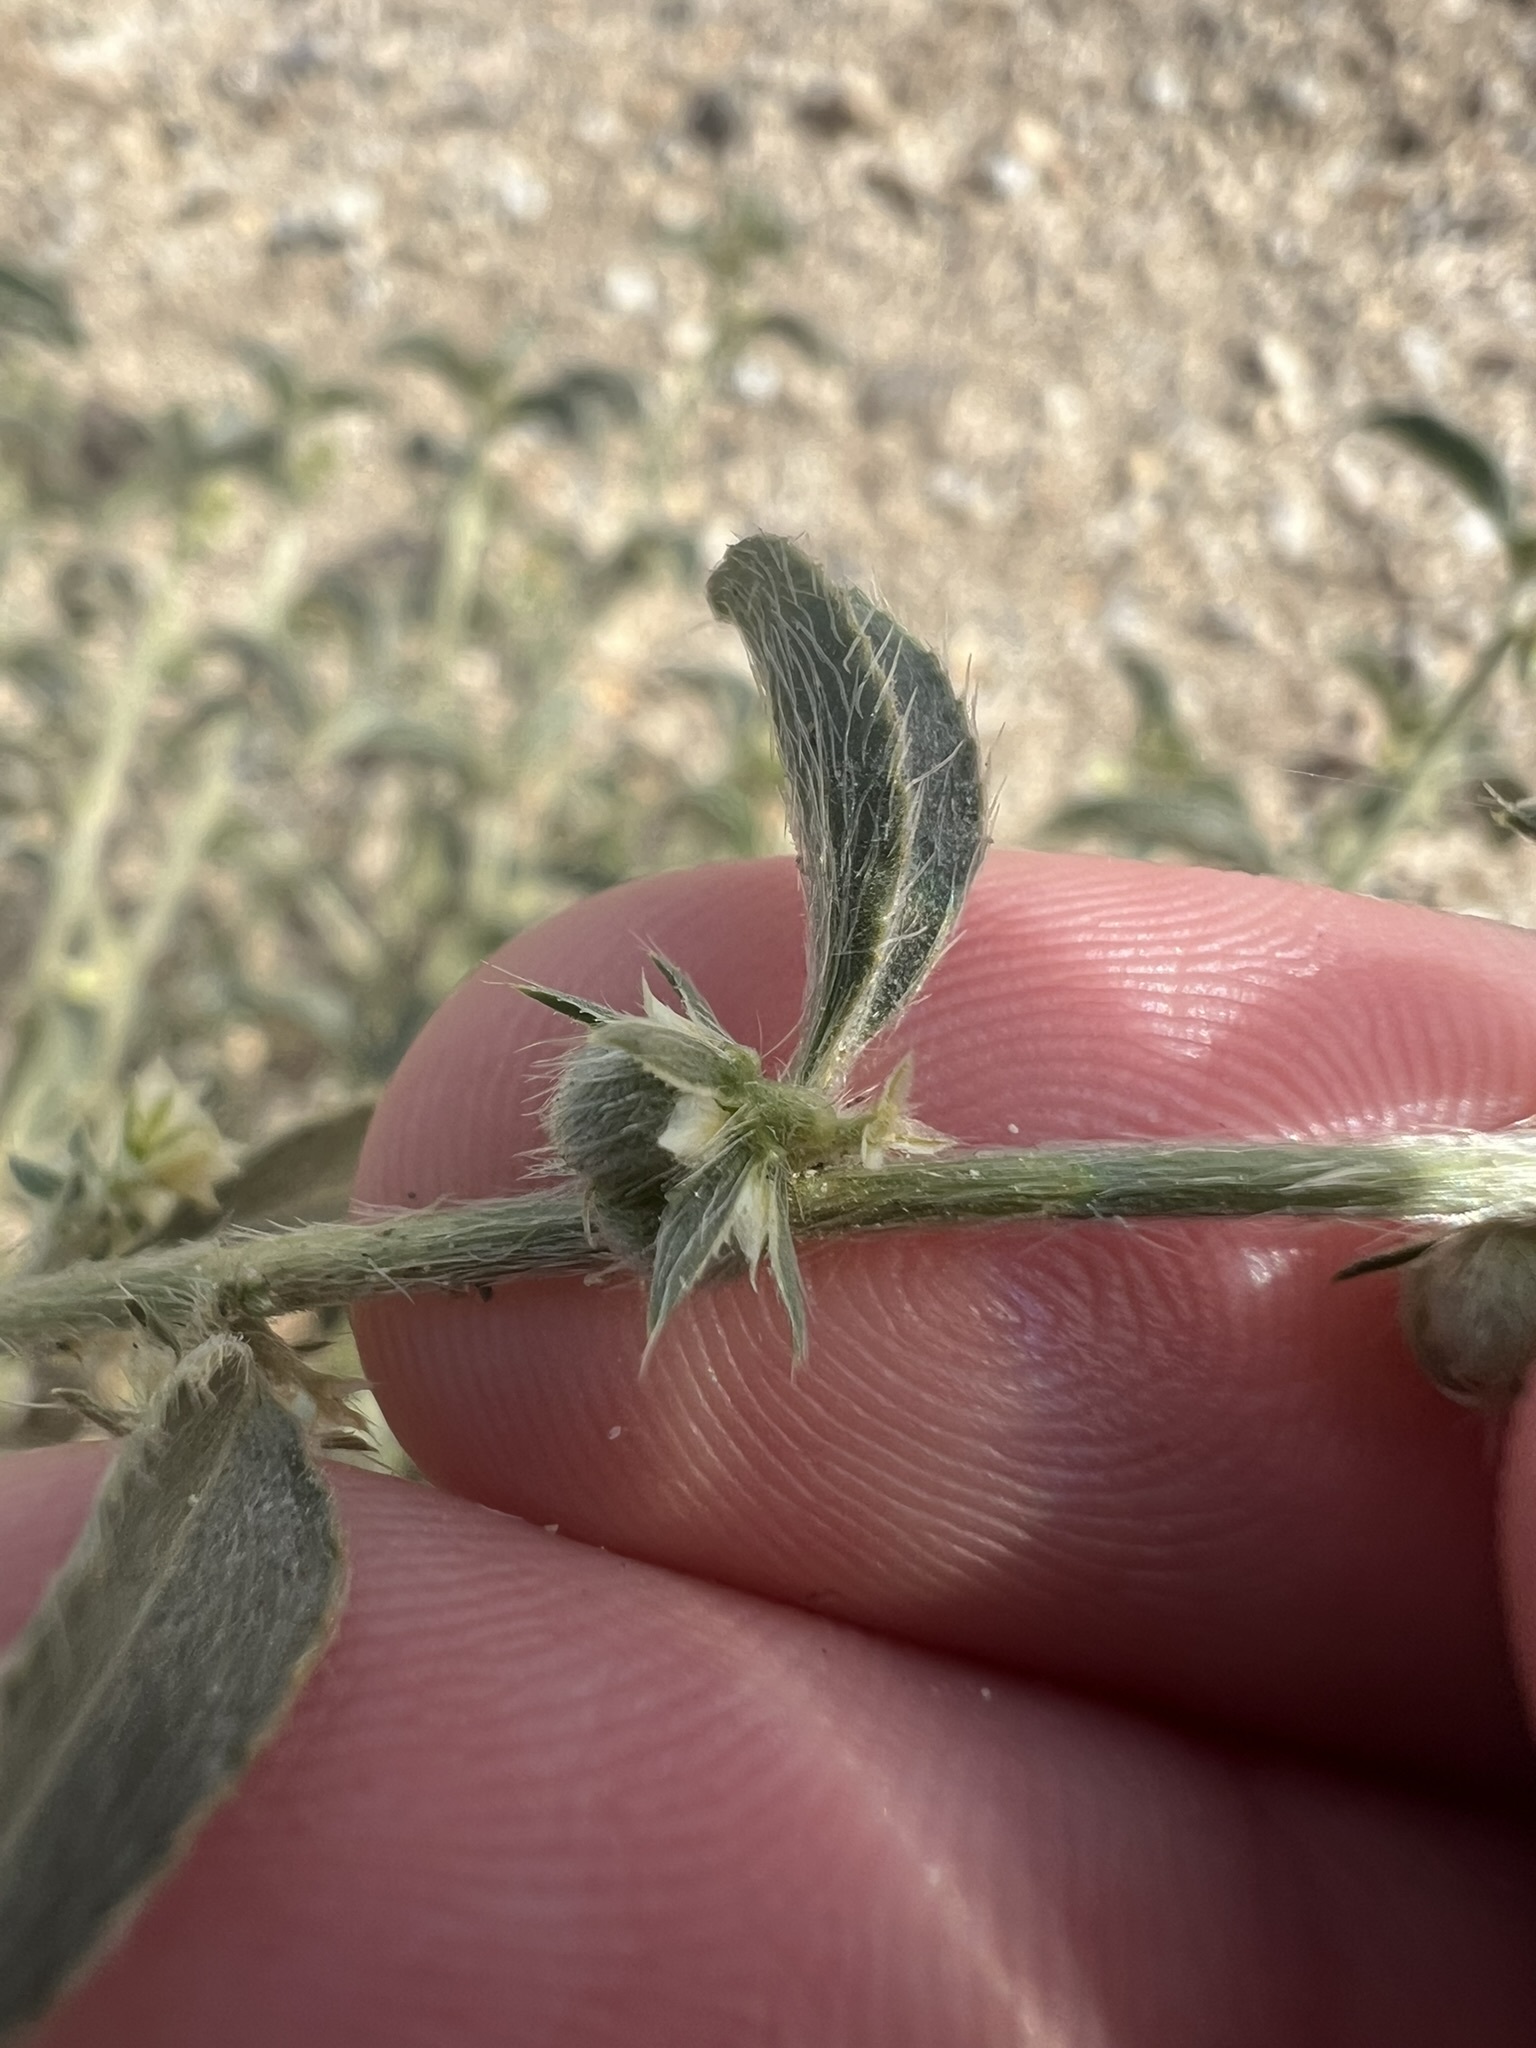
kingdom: Plantae
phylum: Tracheophyta
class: Magnoliopsida
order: Malpighiales
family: Euphorbiaceae
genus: Ditaxis
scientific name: Ditaxis serrata
